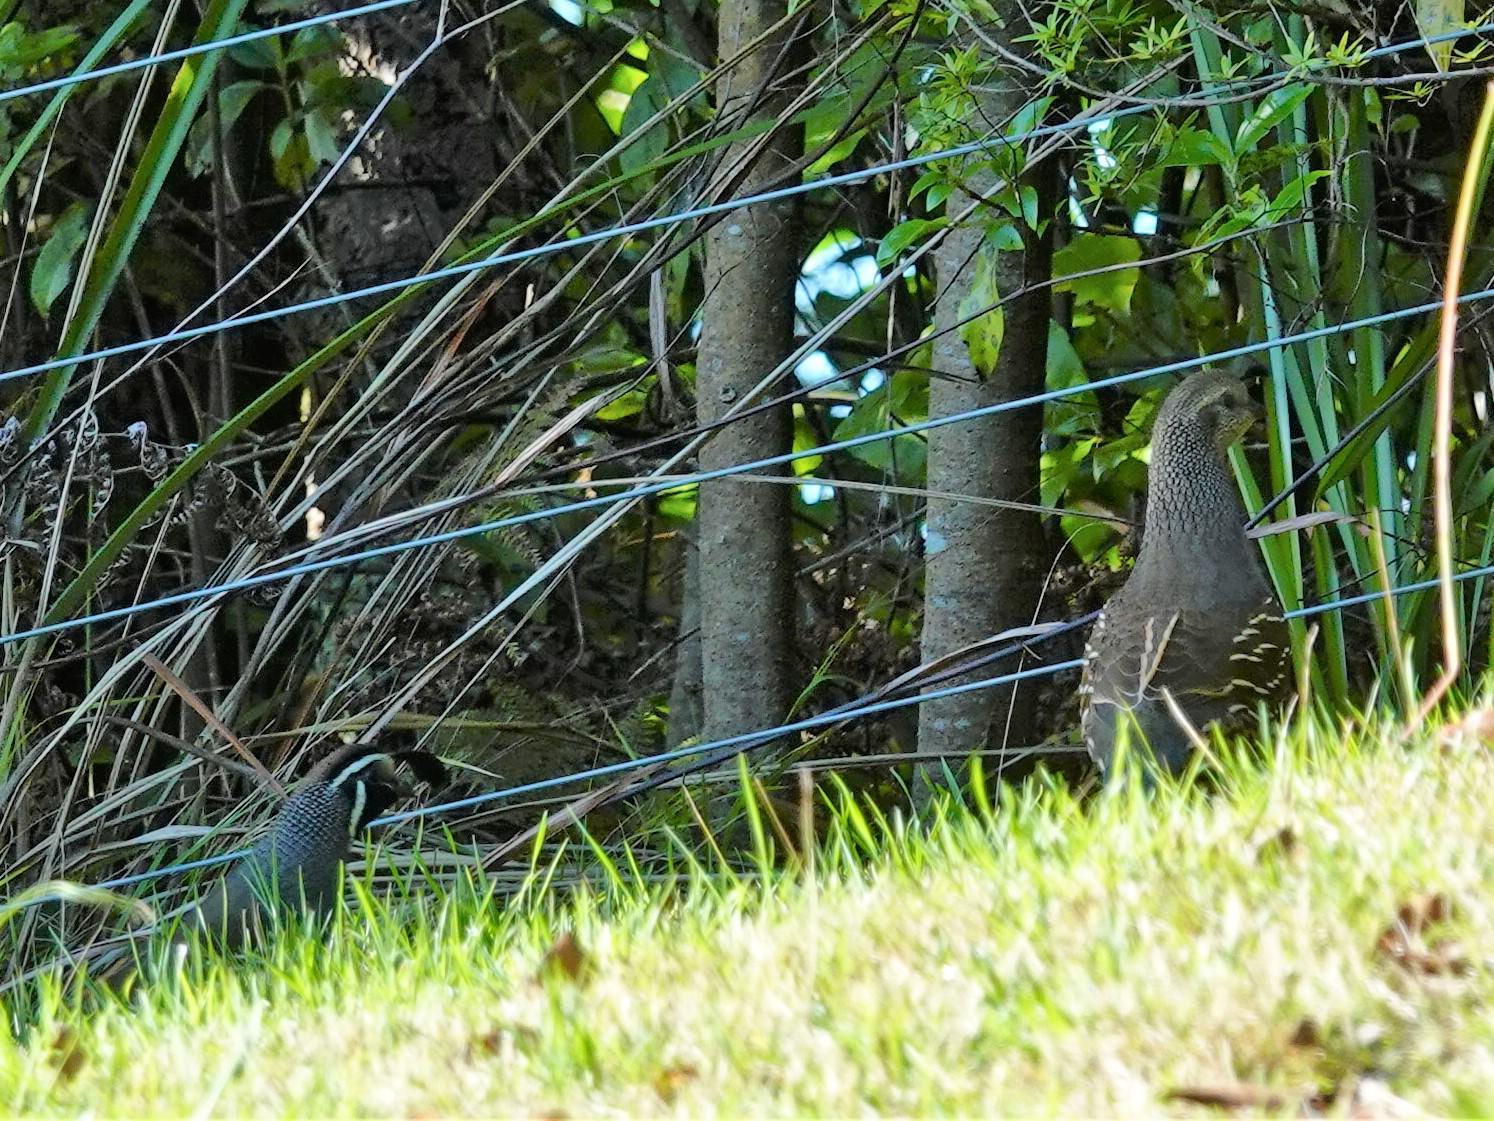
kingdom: Animalia
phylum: Chordata
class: Aves
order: Galliformes
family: Odontophoridae
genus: Callipepla
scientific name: Callipepla californica
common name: California quail
